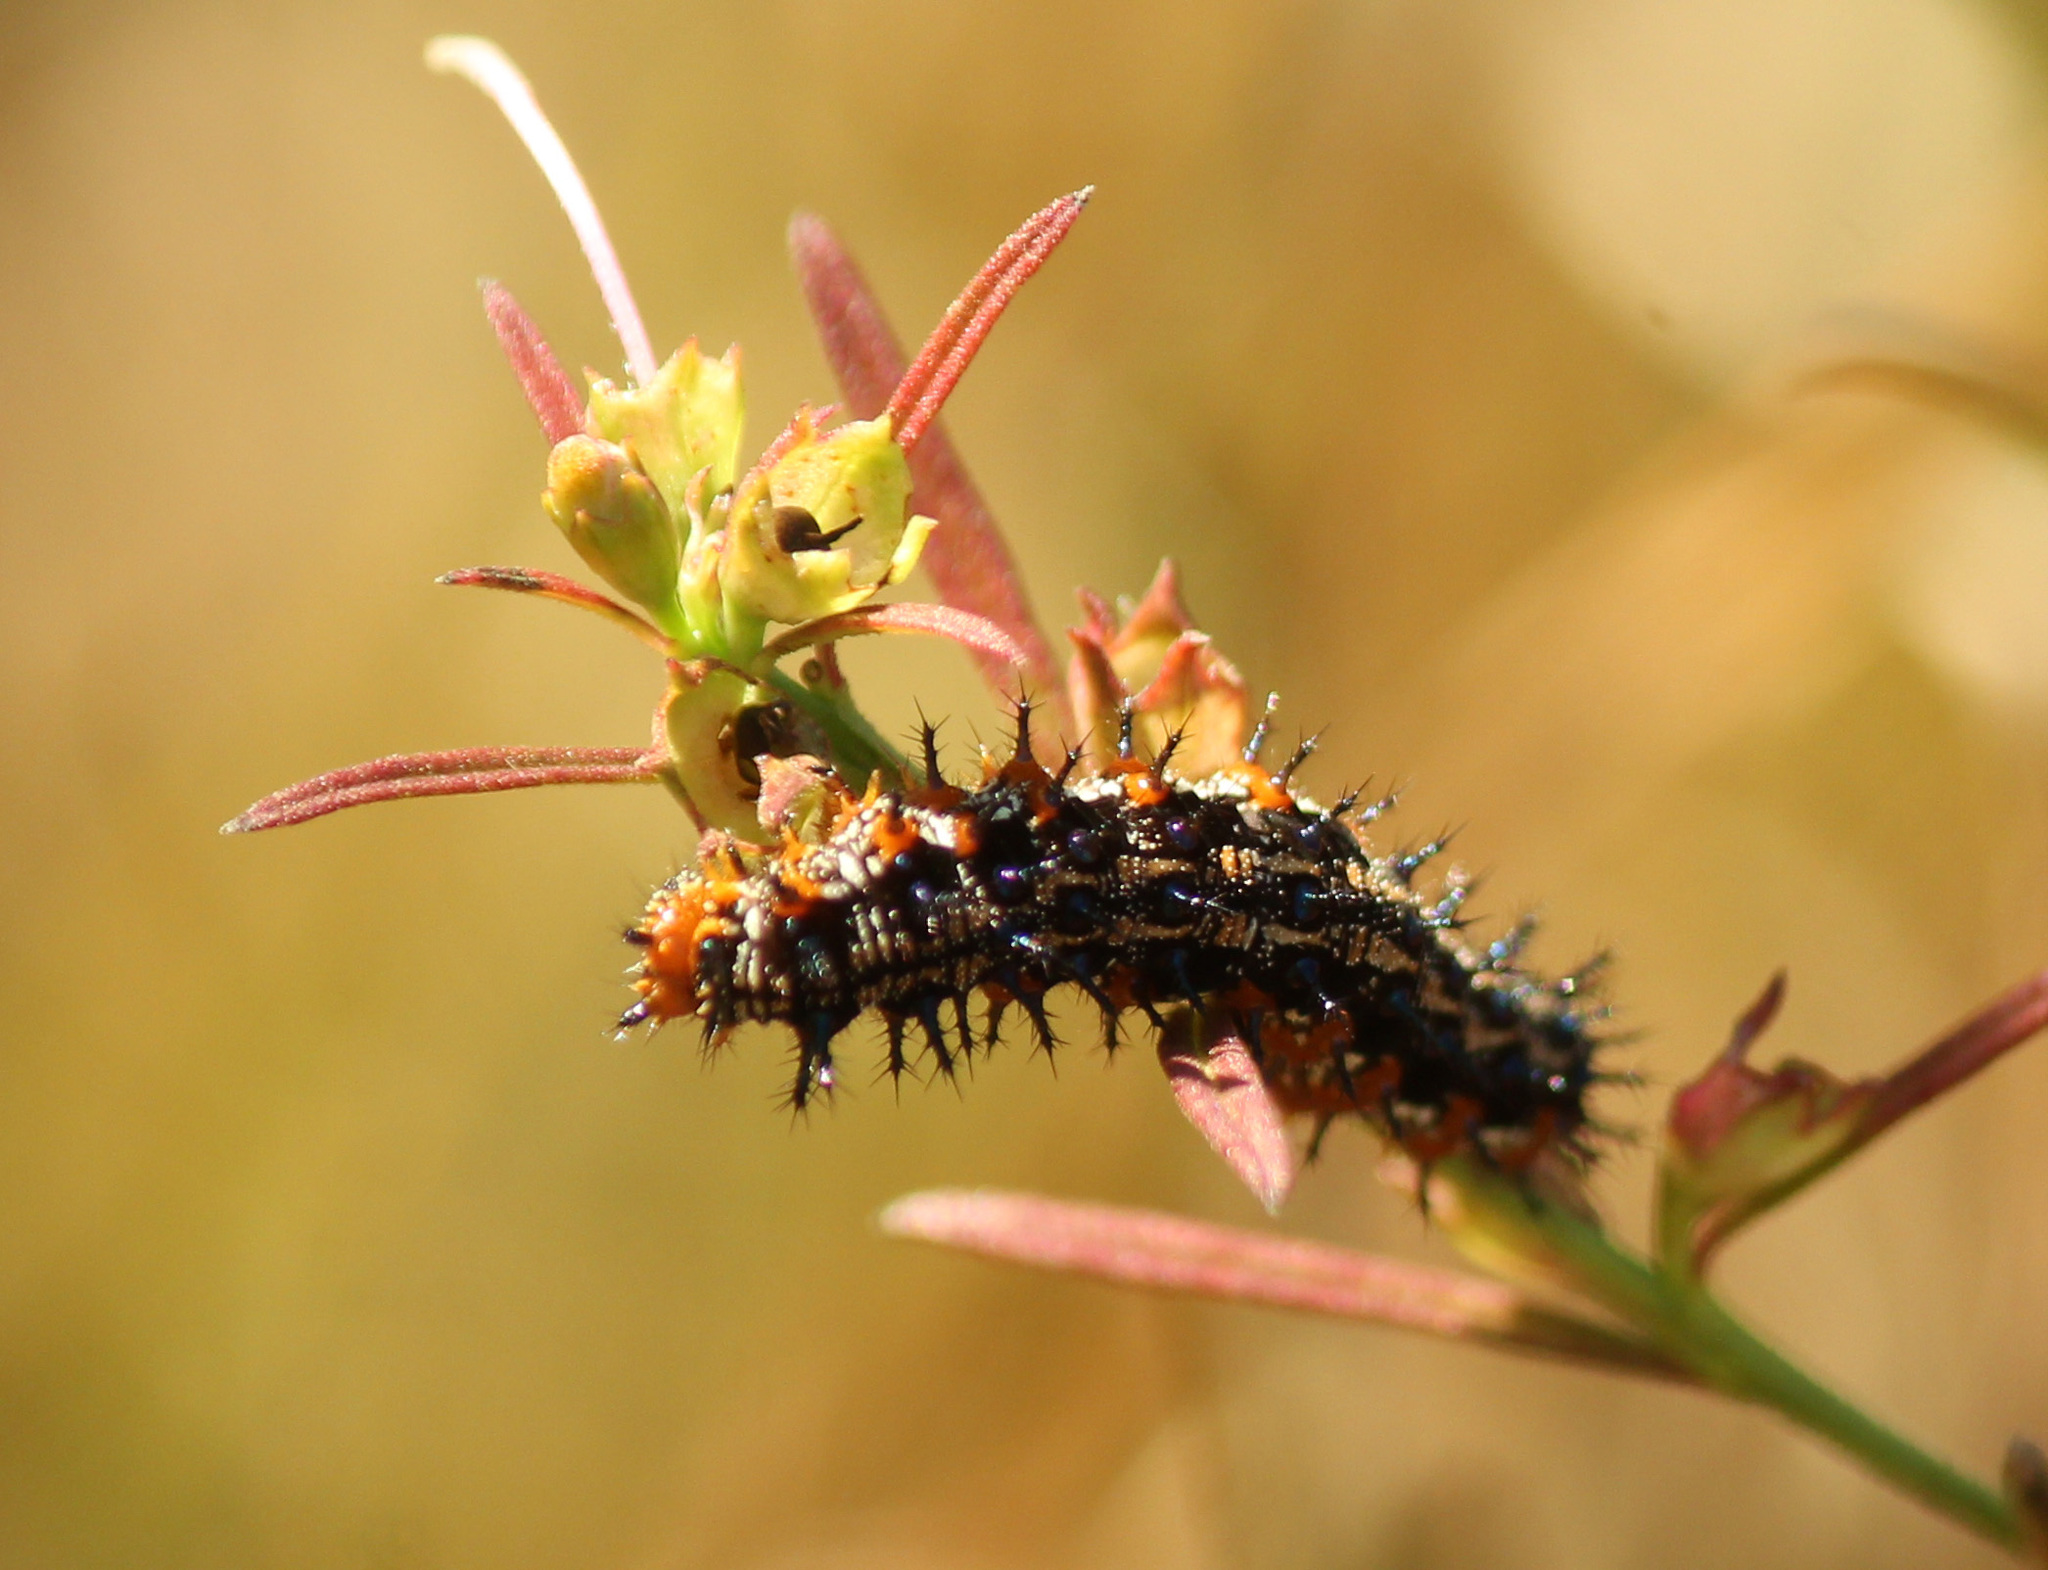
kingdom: Animalia
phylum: Arthropoda
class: Insecta
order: Lepidoptera
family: Nymphalidae
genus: Junonia
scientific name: Junonia coenia
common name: Common buckeye
